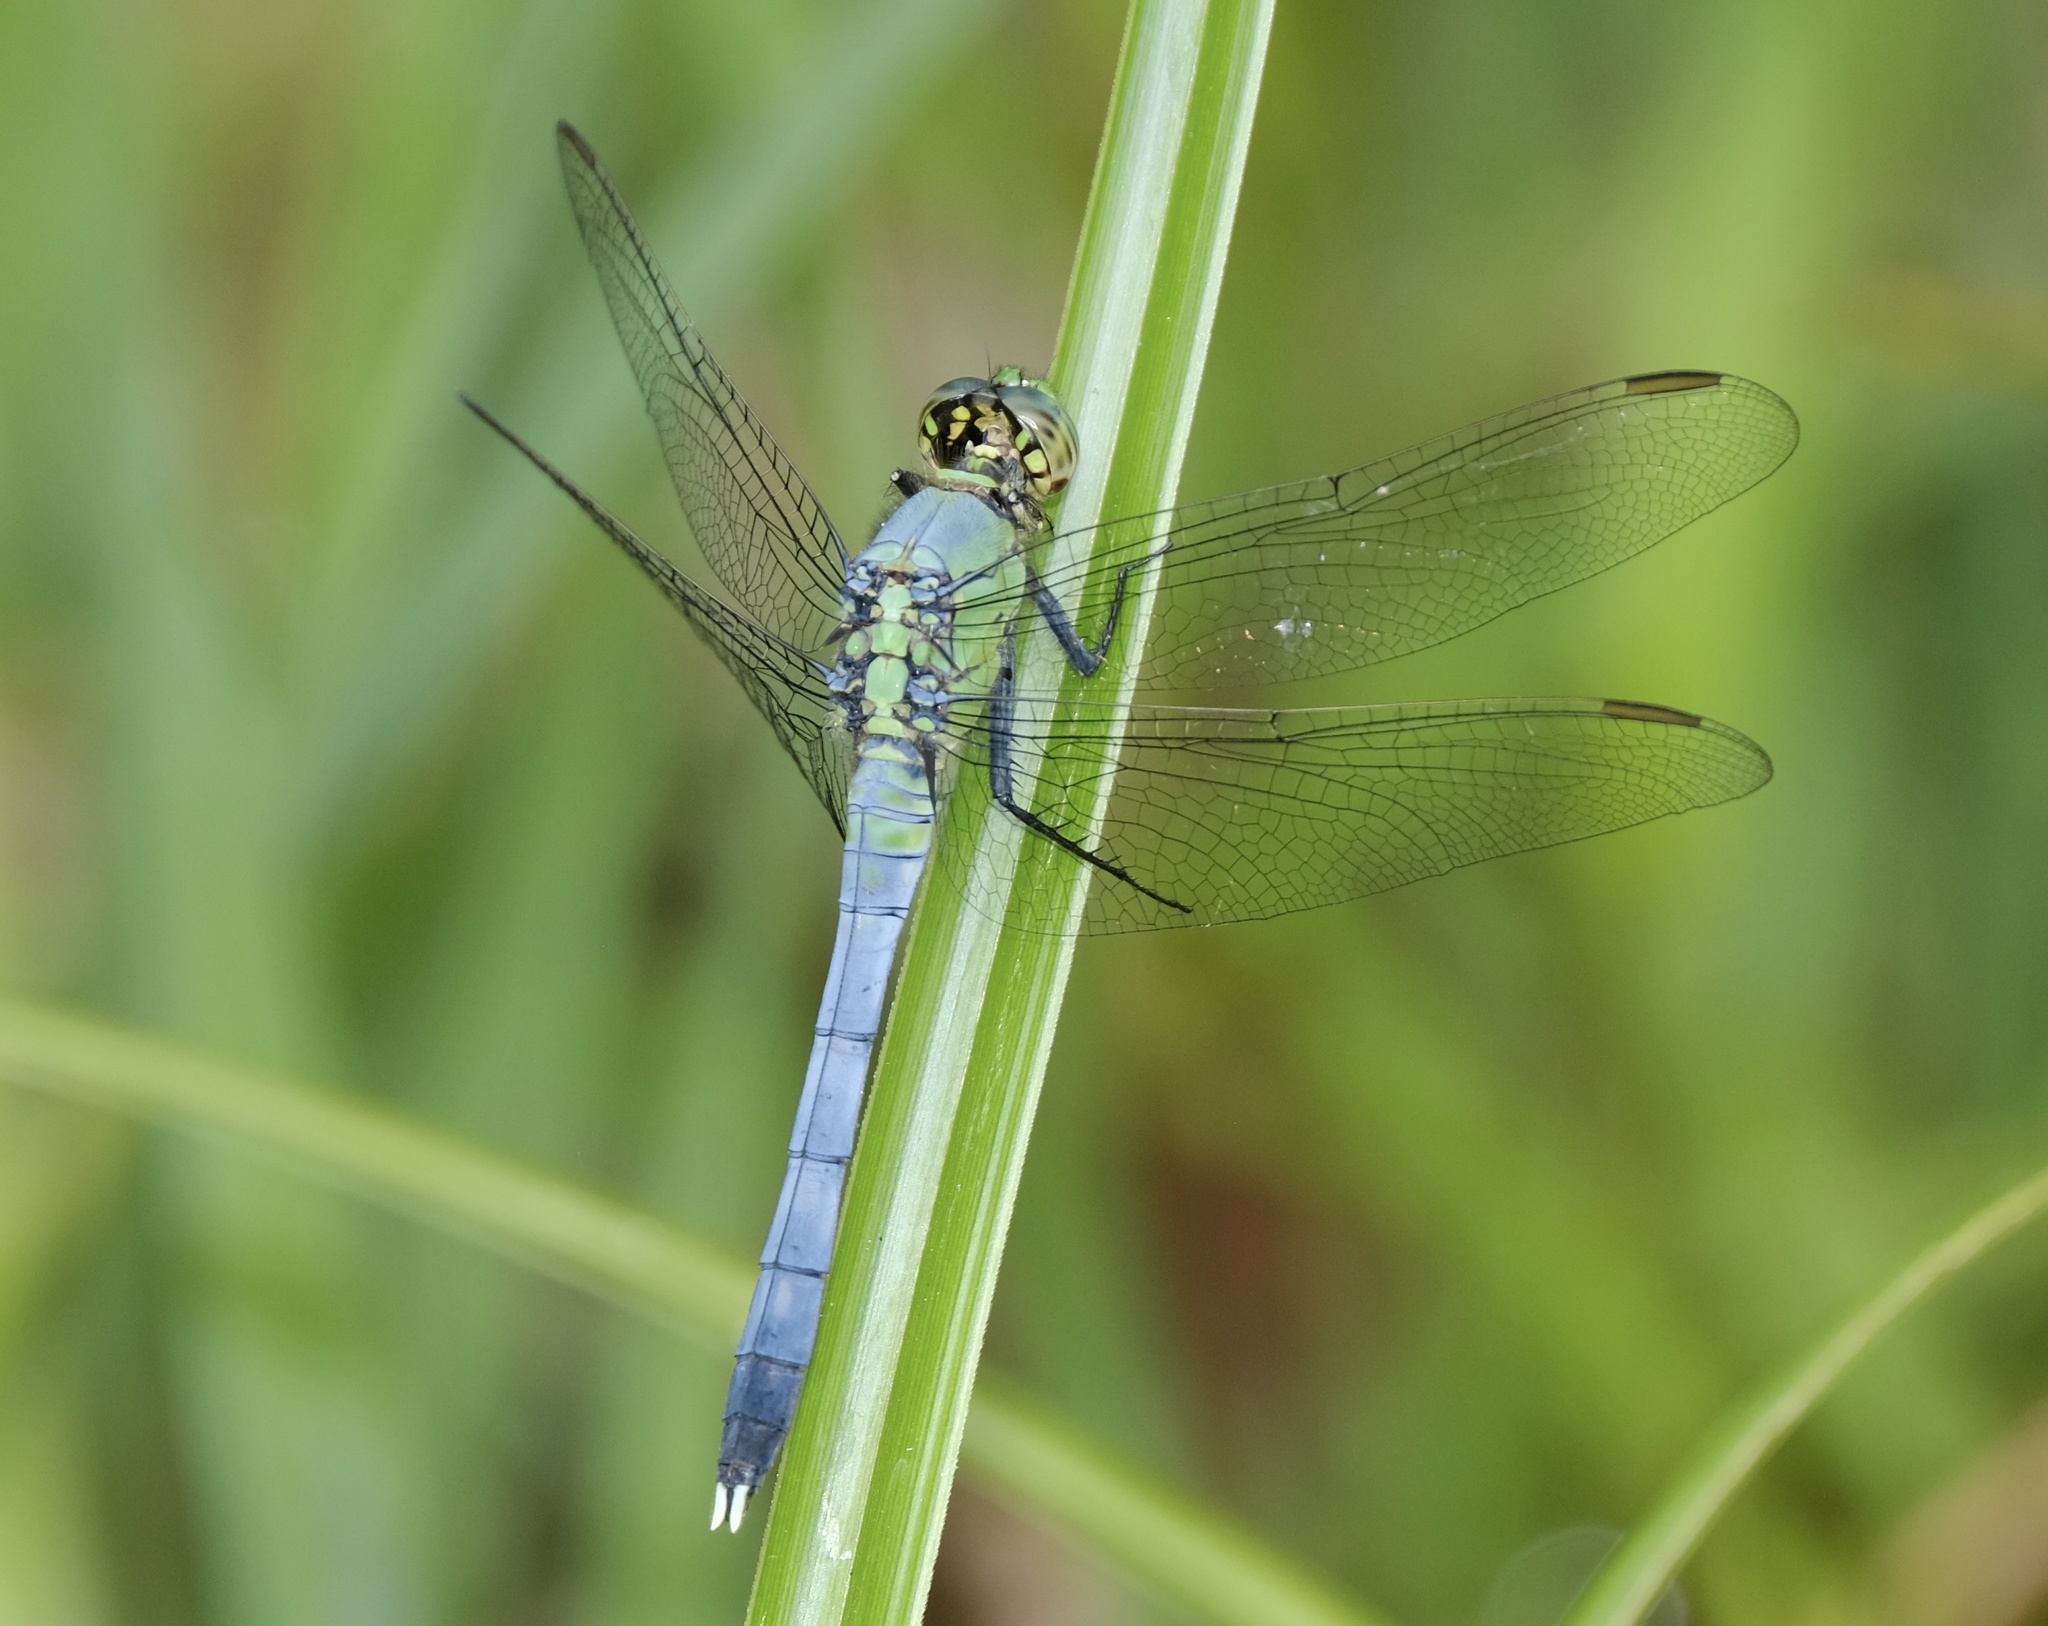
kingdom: Animalia
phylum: Arthropoda
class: Insecta
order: Odonata
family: Libellulidae
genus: Erythemis
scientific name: Erythemis simplicicollis
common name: Eastern pondhawk
